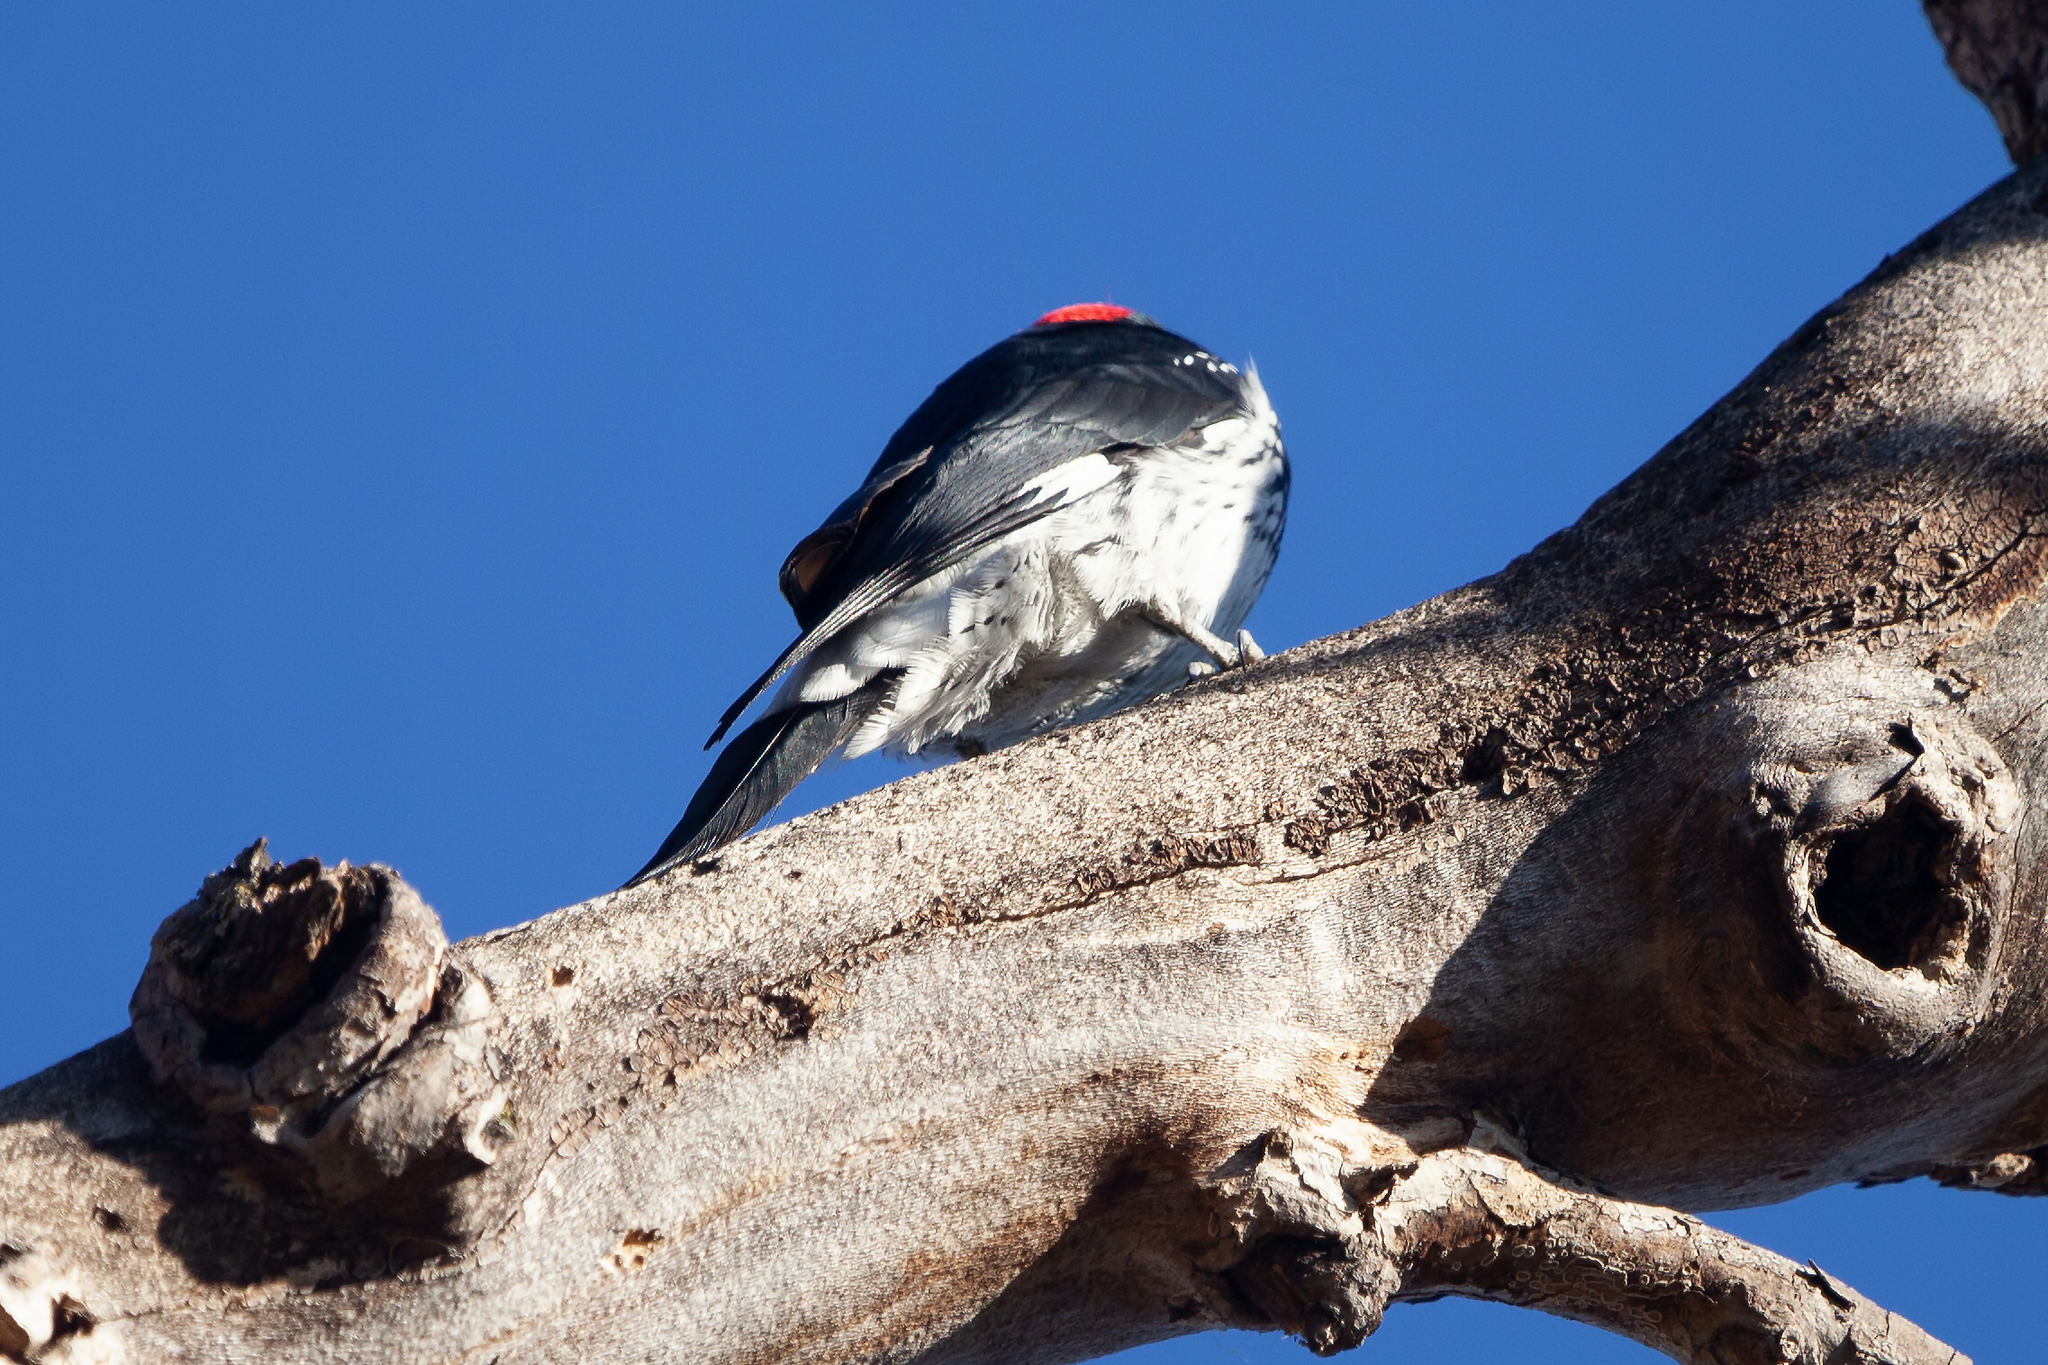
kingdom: Animalia
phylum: Chordata
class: Aves
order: Piciformes
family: Picidae
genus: Melanerpes
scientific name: Melanerpes formicivorus
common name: Acorn woodpecker
